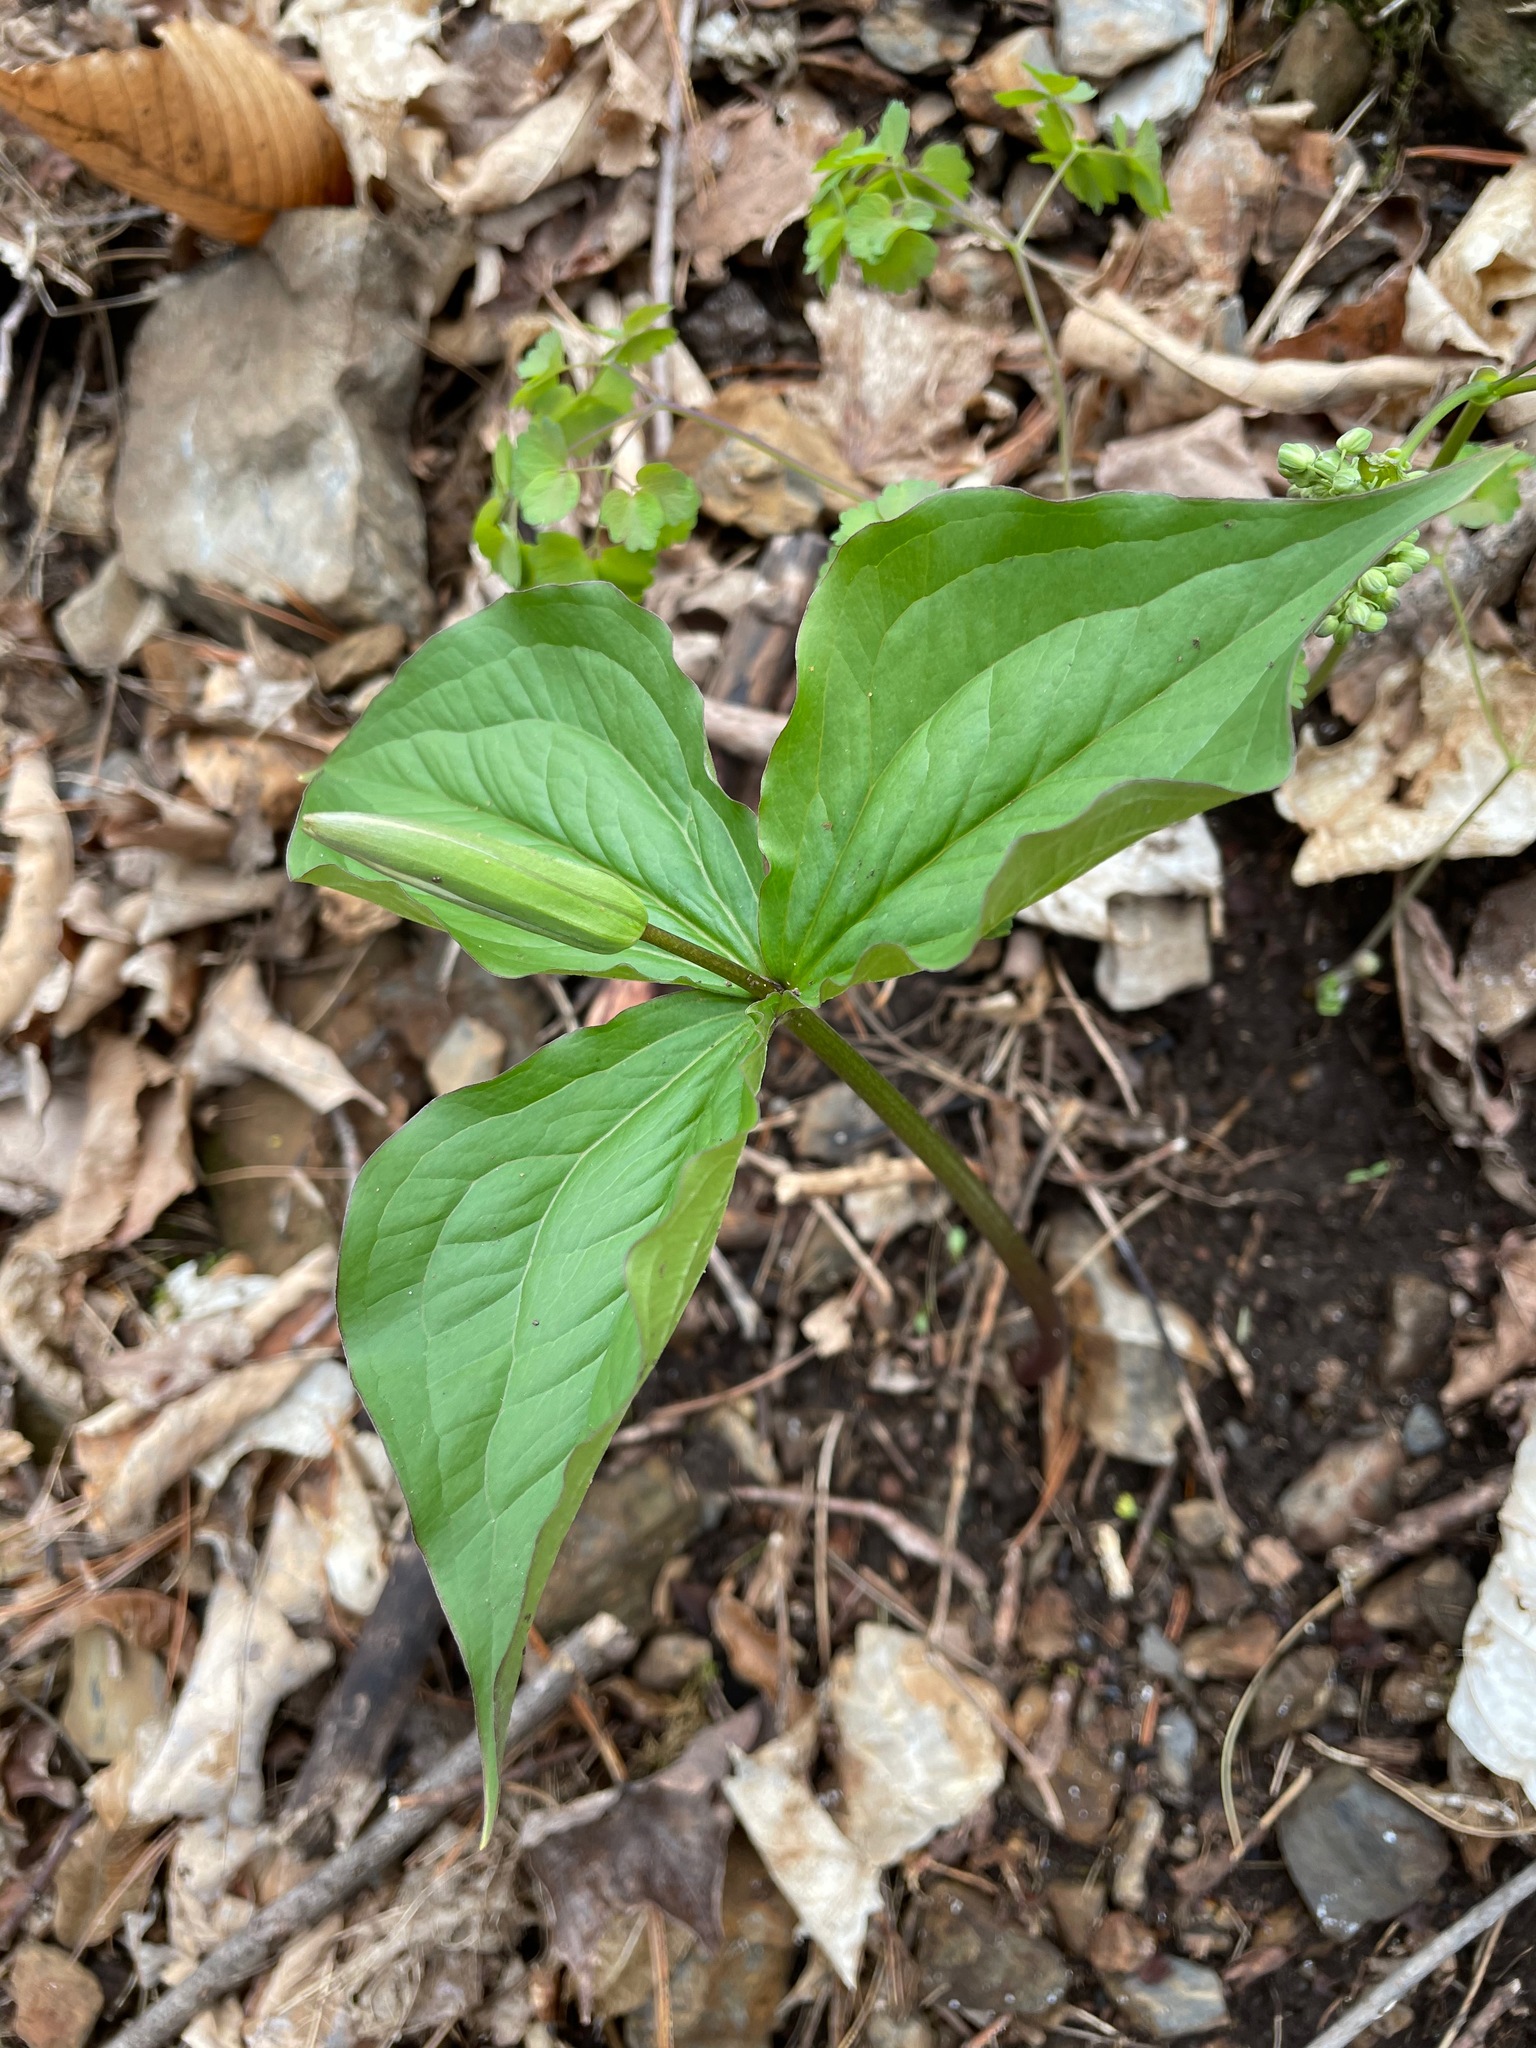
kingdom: Plantae
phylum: Tracheophyta
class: Liliopsida
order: Liliales
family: Melanthiaceae
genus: Trillium
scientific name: Trillium grandiflorum
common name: Great white trillium
